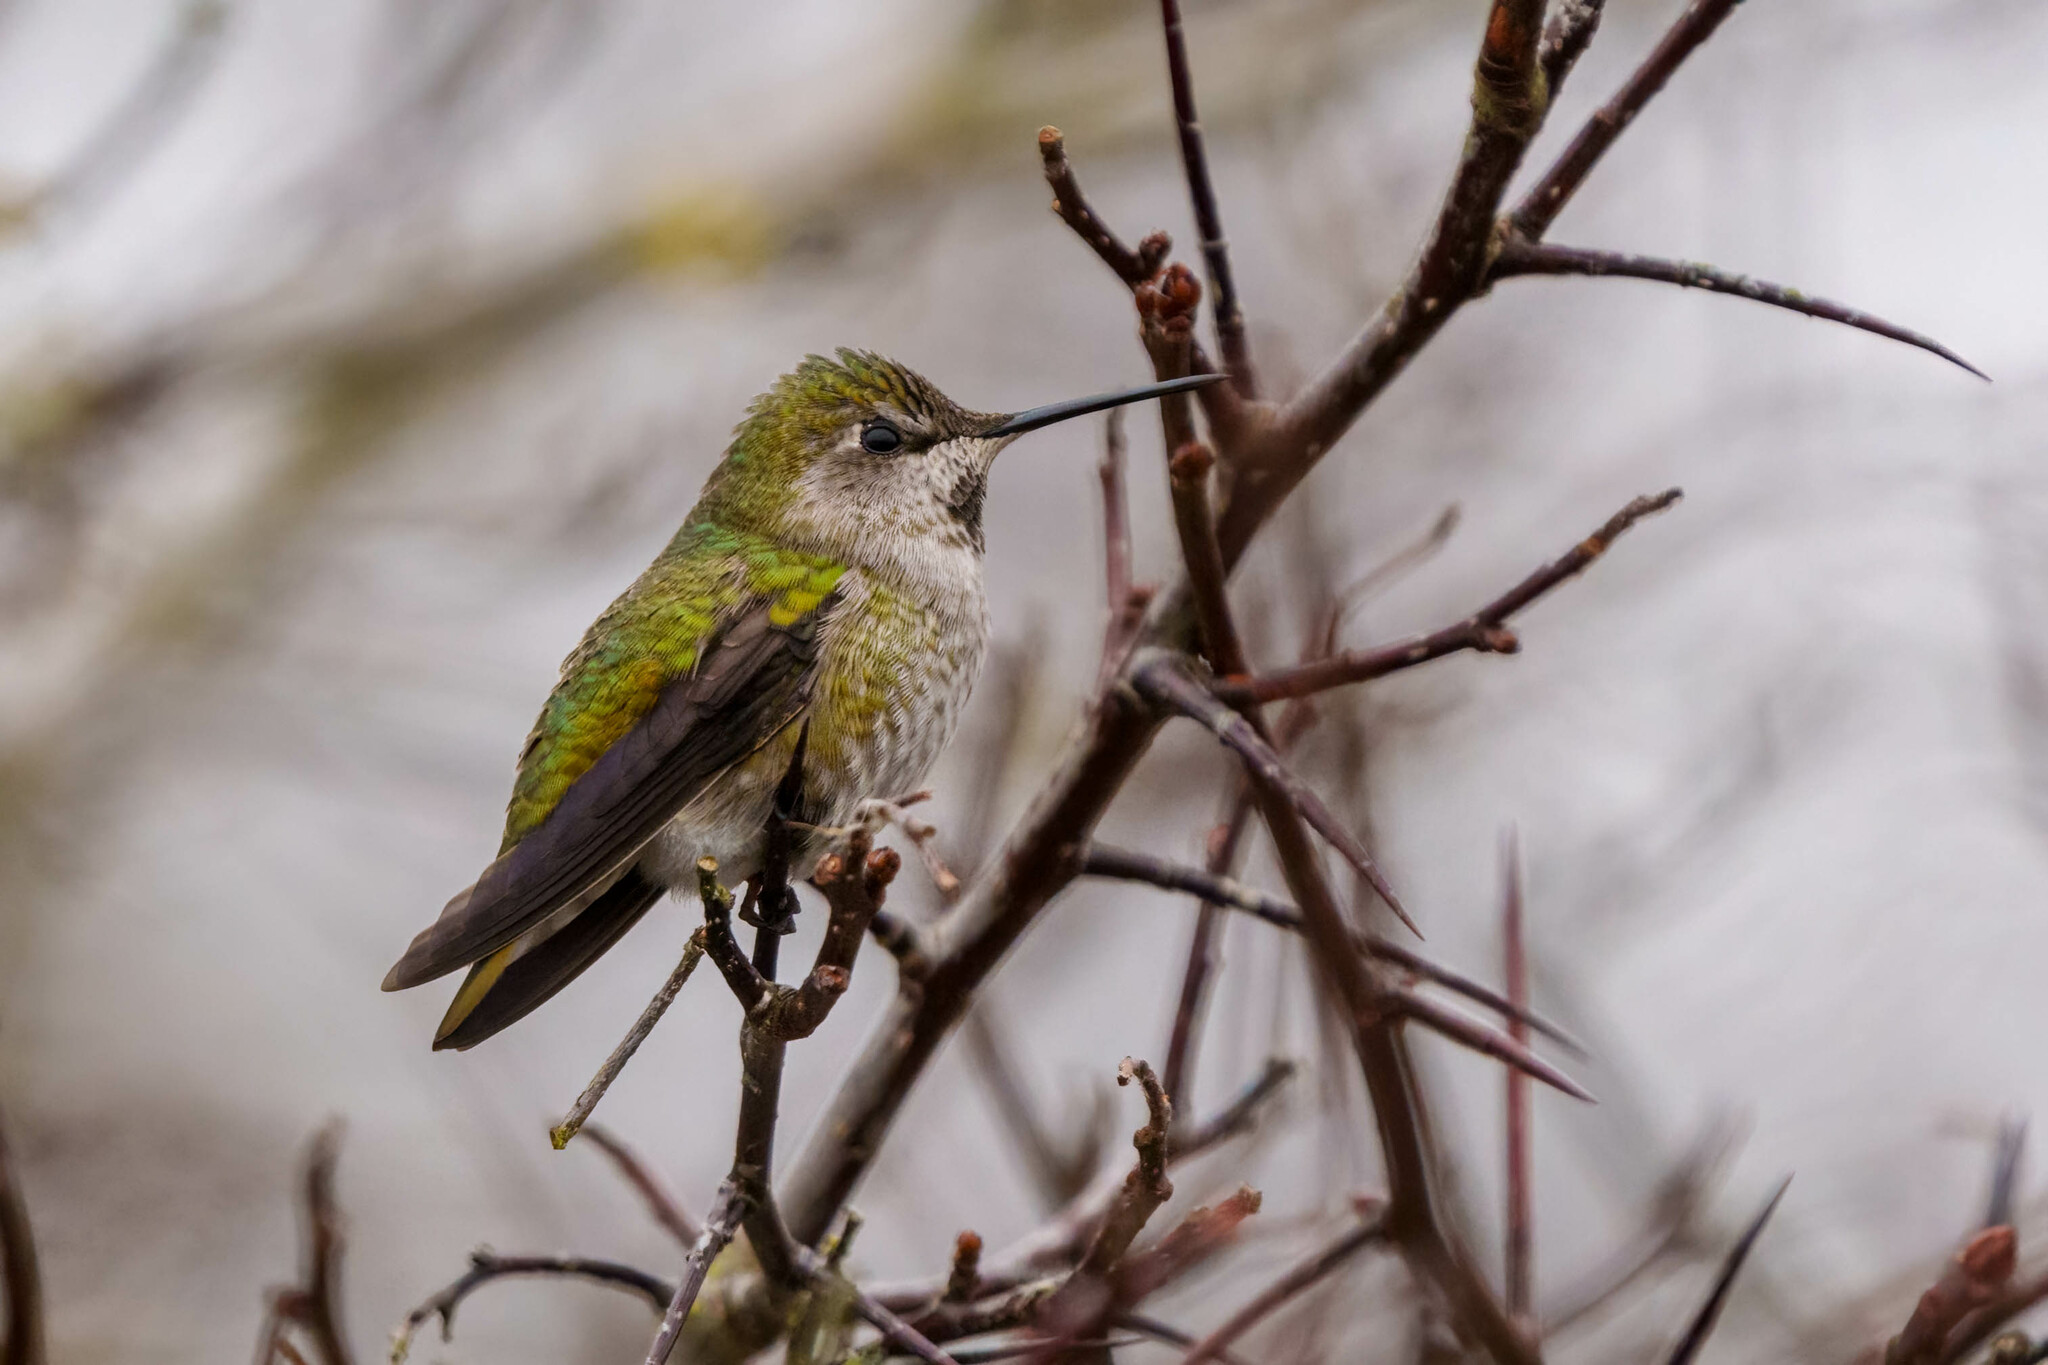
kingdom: Animalia
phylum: Chordata
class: Aves
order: Apodiformes
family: Trochilidae
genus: Calypte
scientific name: Calypte anna
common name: Anna's hummingbird
